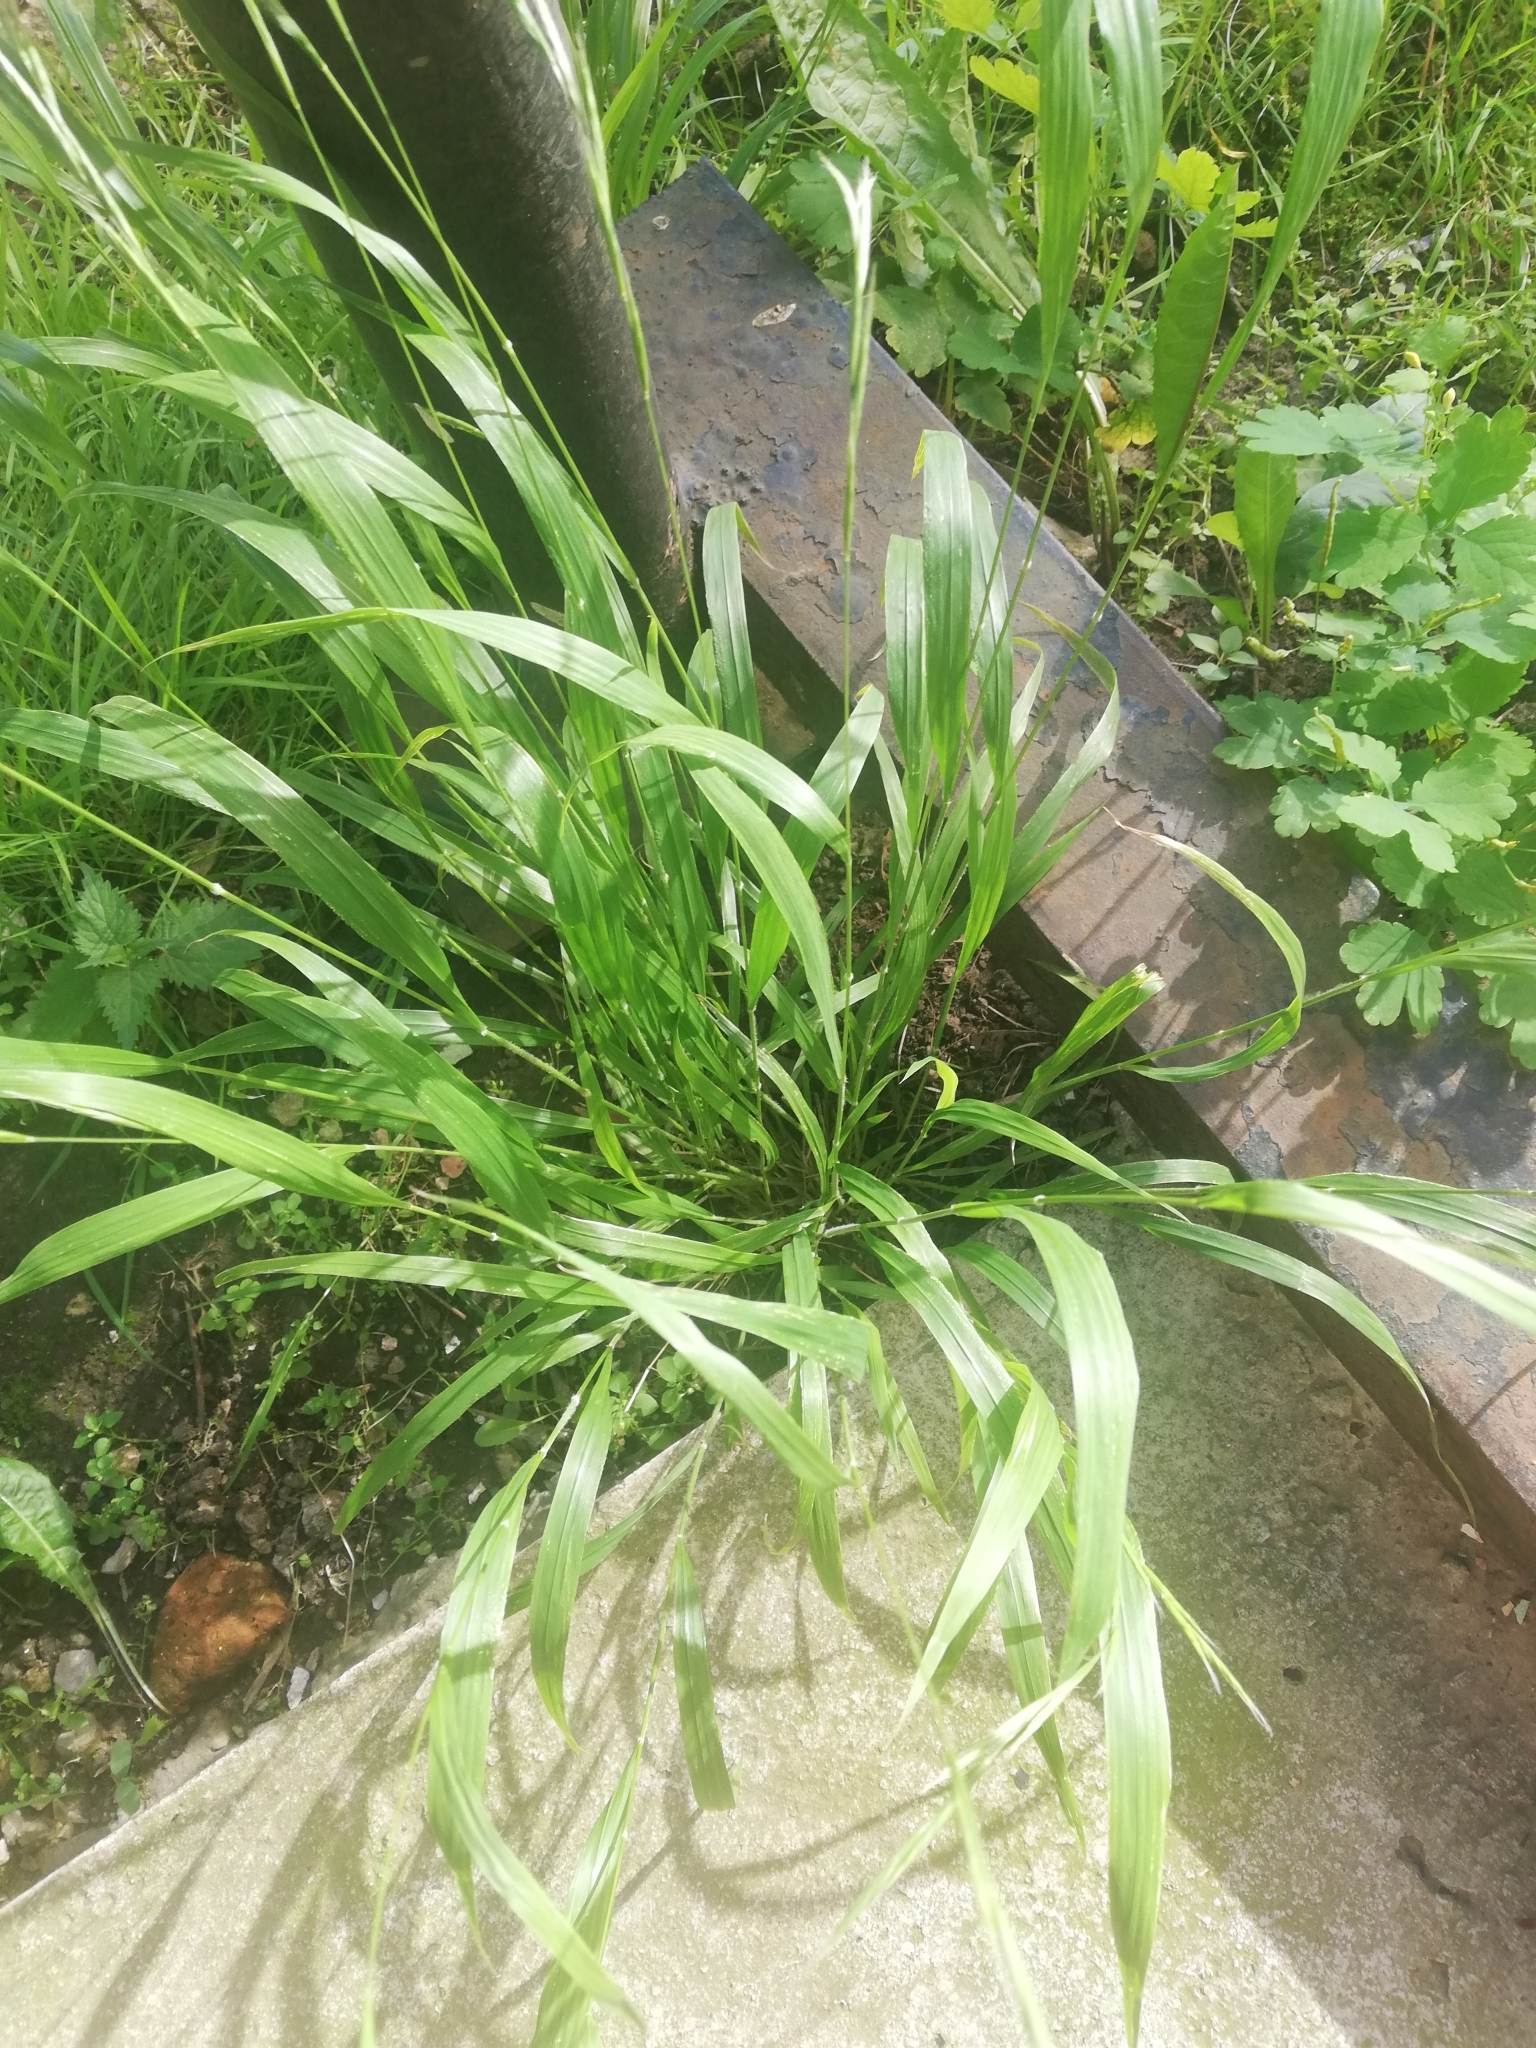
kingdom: Plantae
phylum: Tracheophyta
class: Liliopsida
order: Poales
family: Poaceae
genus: Brachypodium
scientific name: Brachypodium sylvaticum
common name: False-brome
